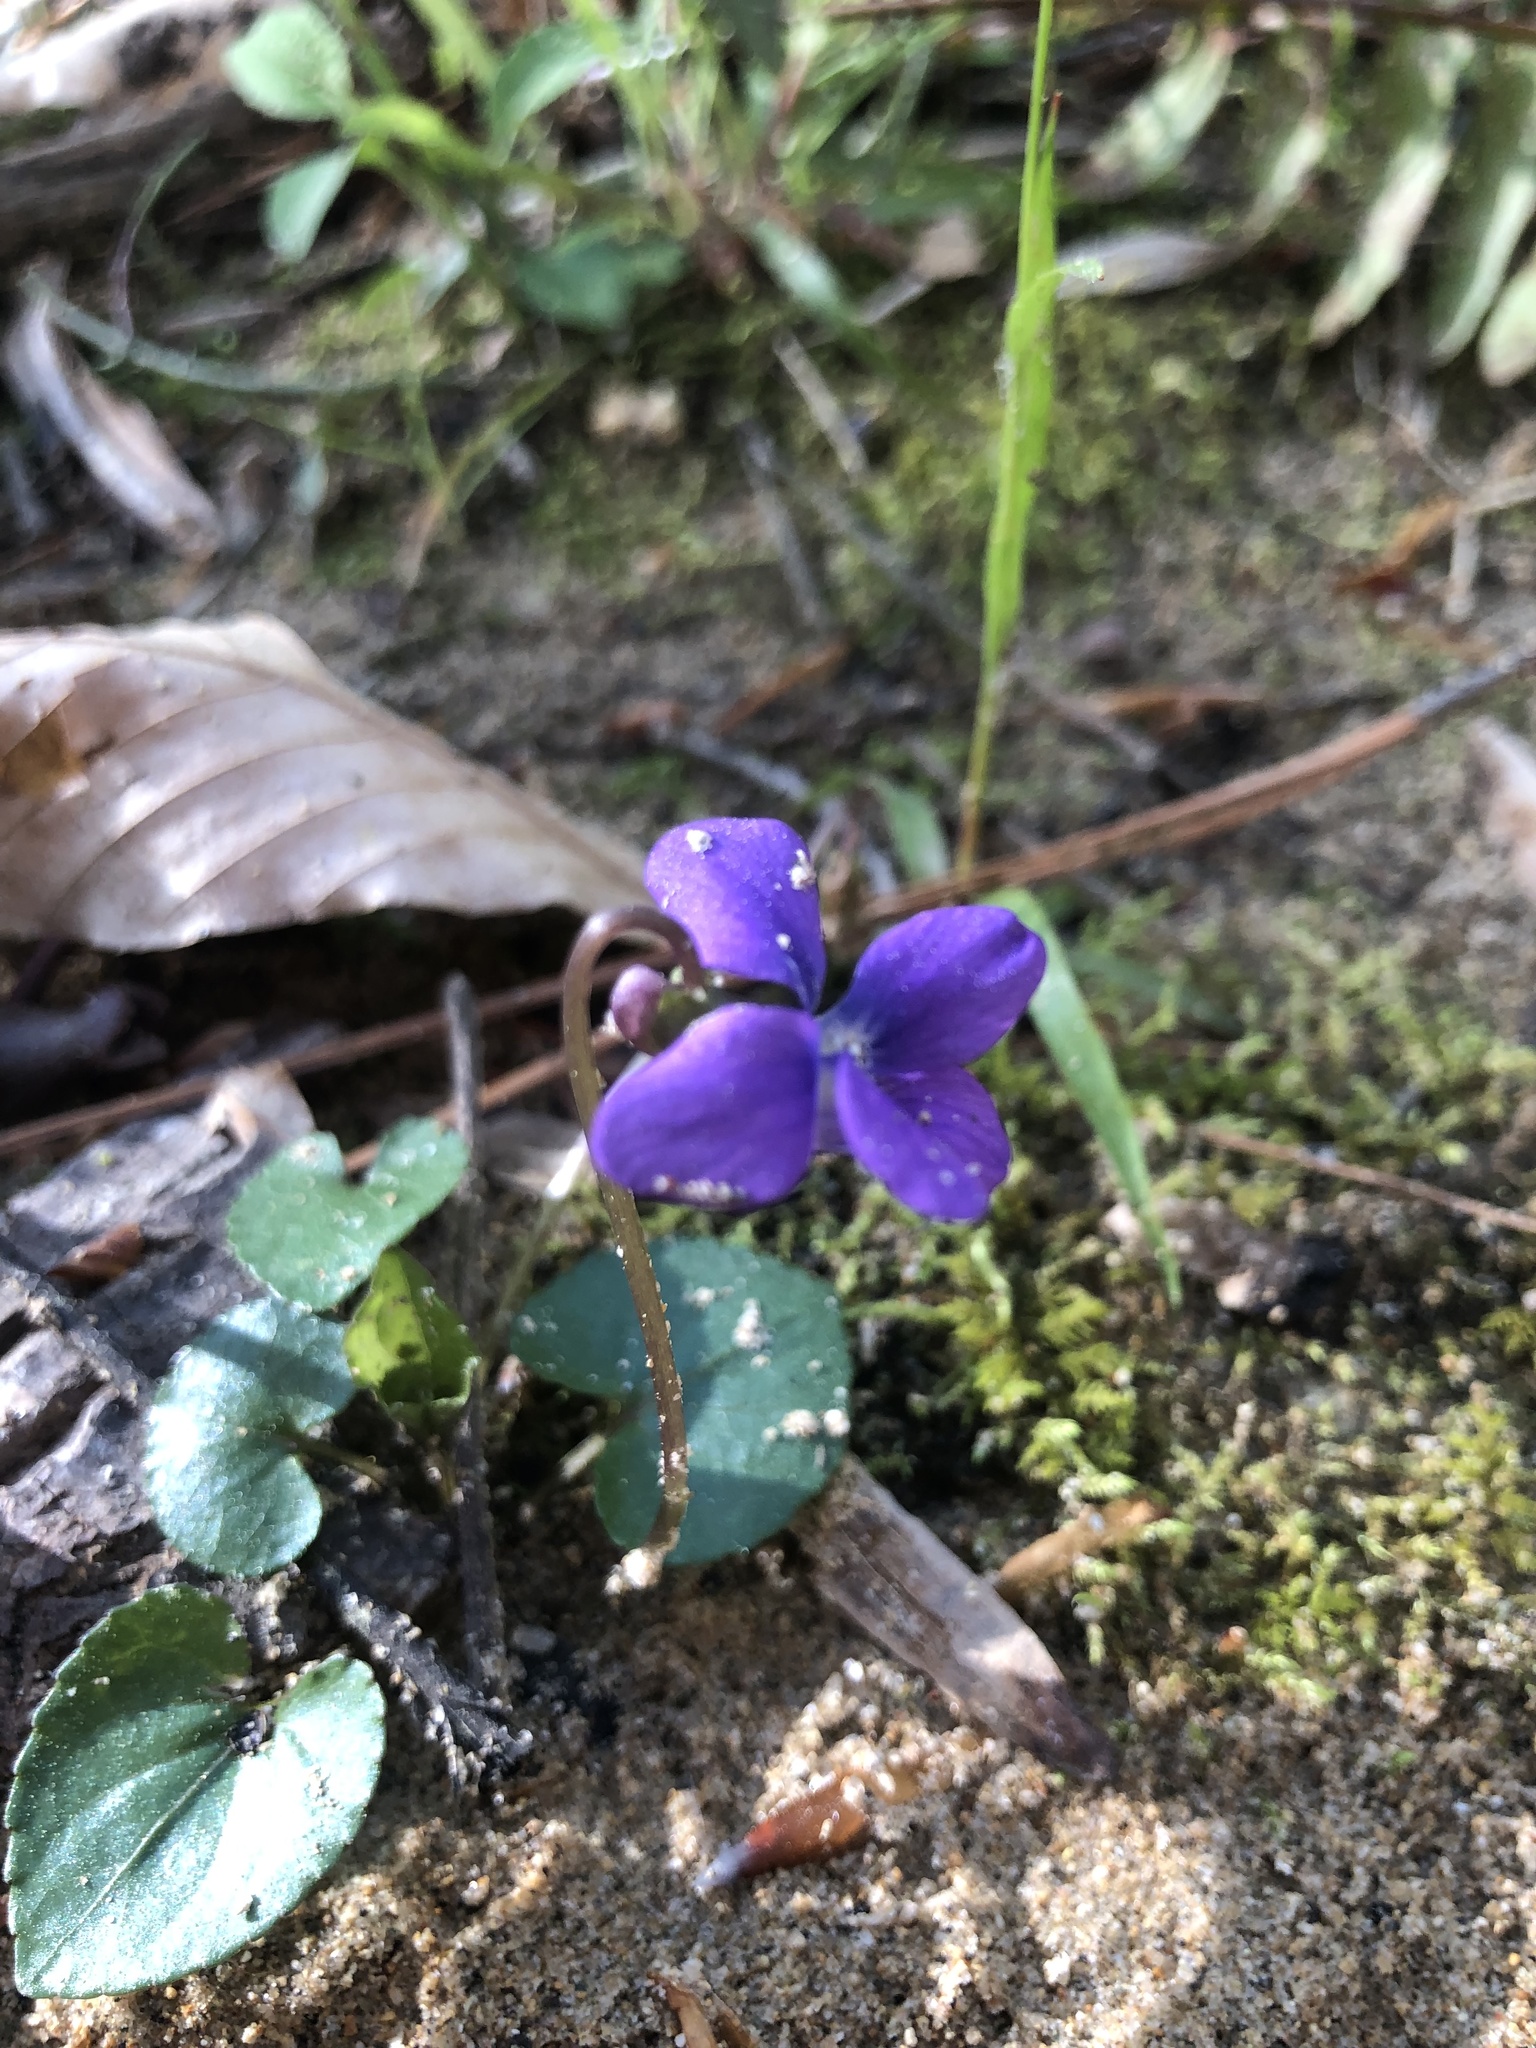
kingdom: Plantae
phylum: Tracheophyta
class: Magnoliopsida
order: Malpighiales
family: Violaceae
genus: Viola
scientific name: Viola sororia
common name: Dooryard violet
